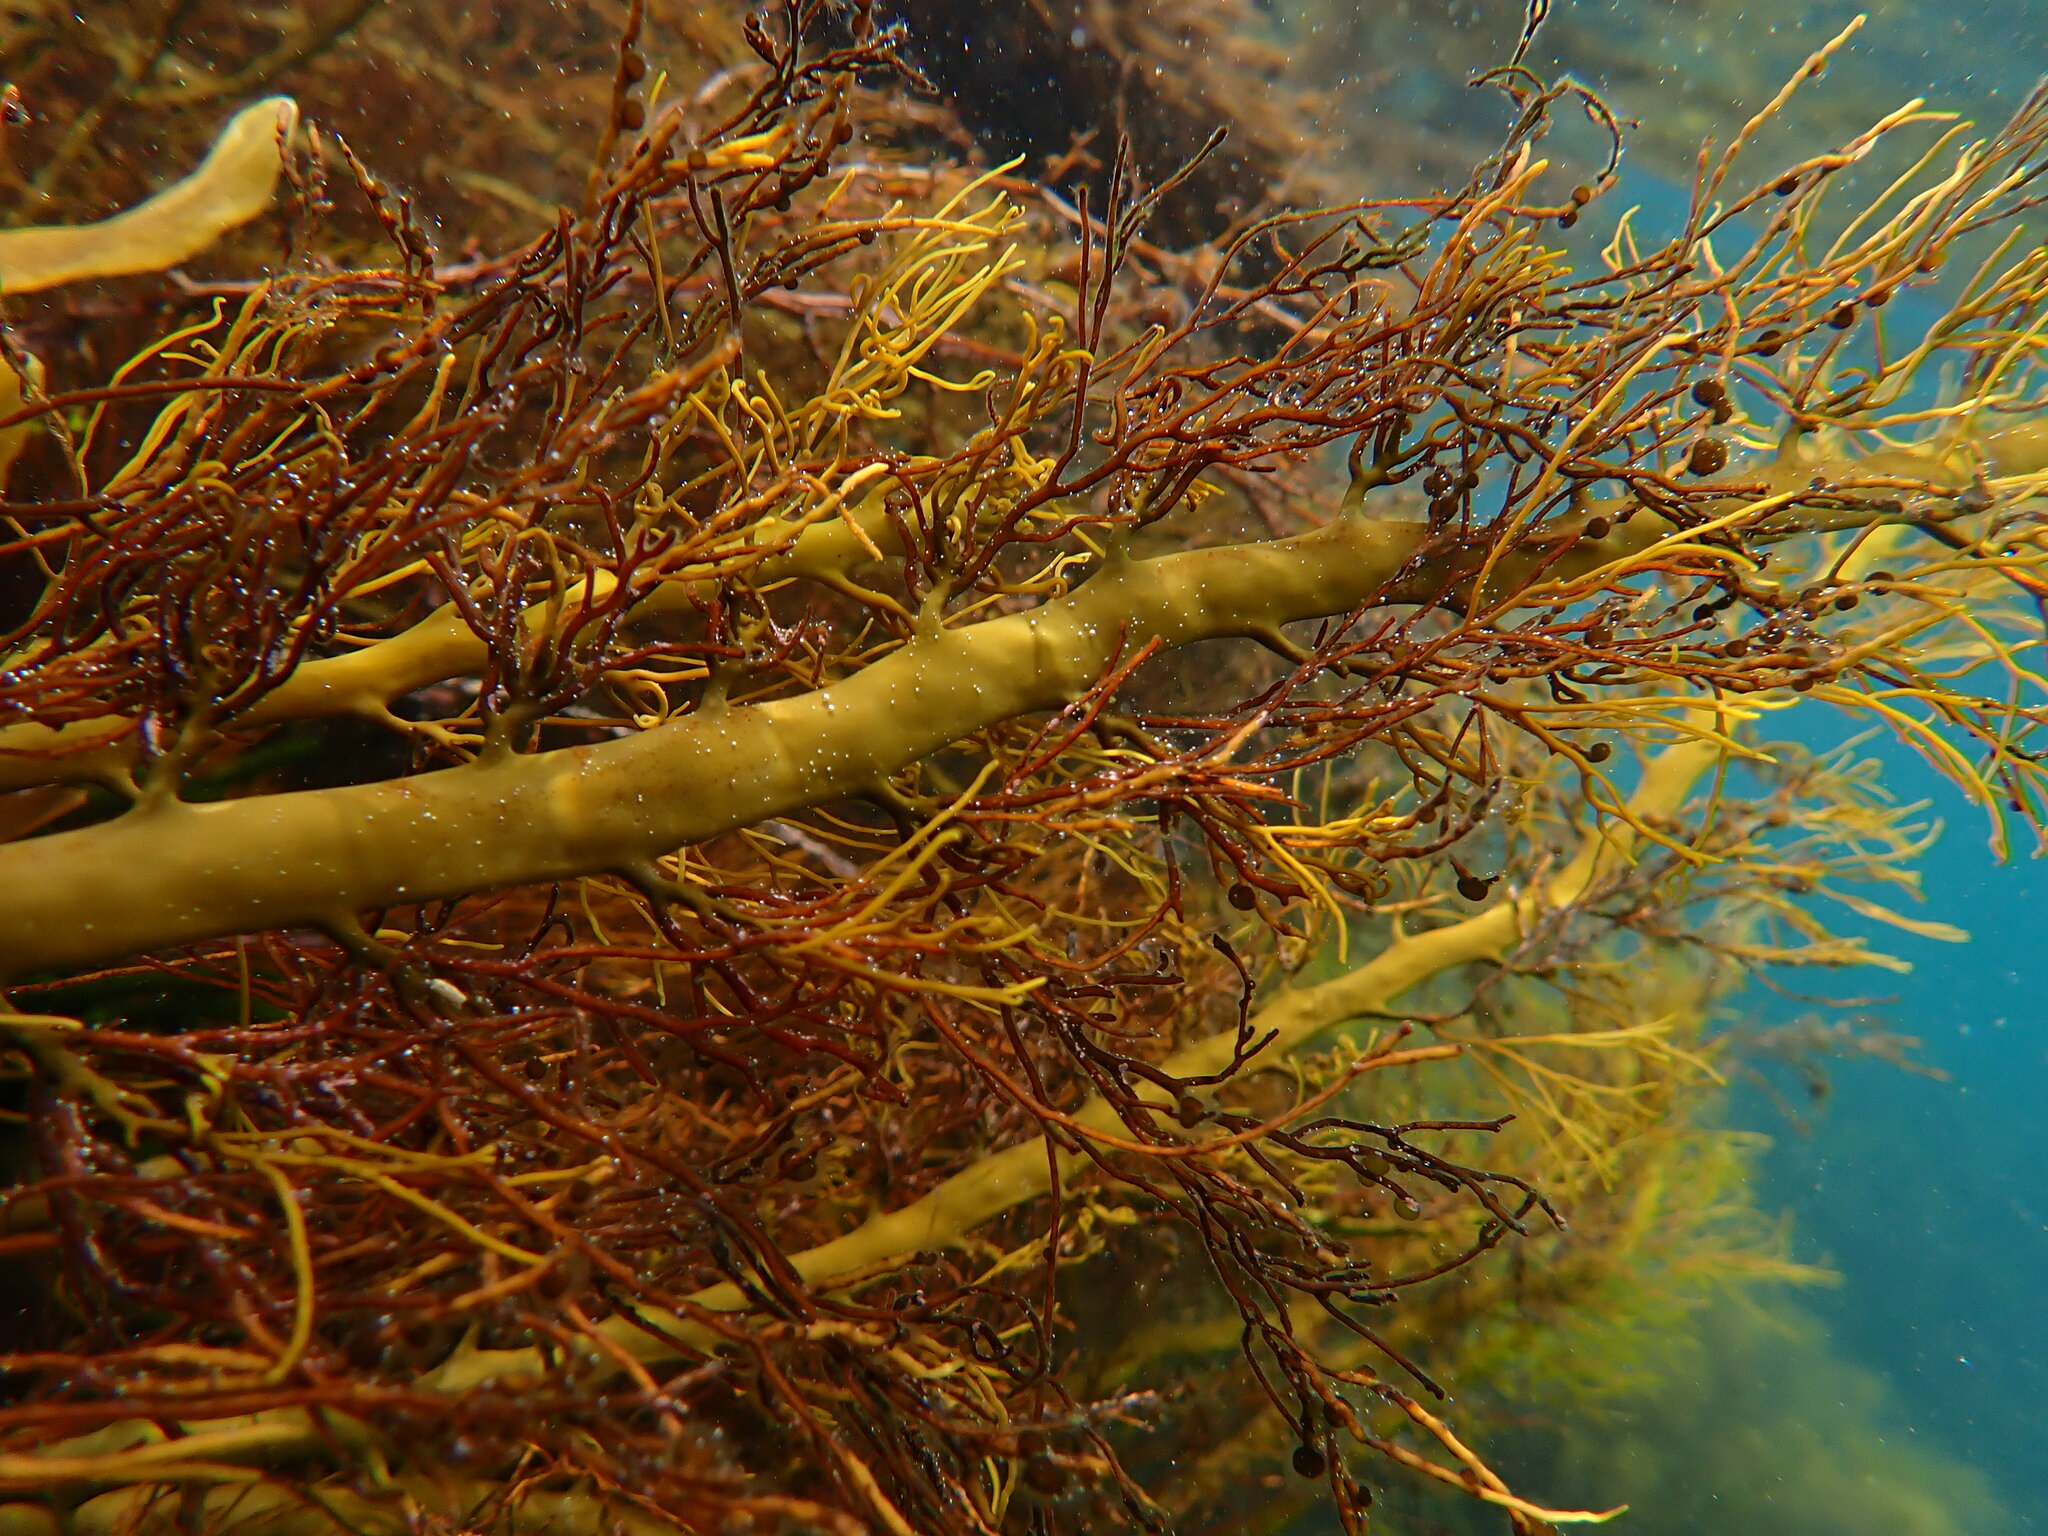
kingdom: Chromista
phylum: Ochrophyta
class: Phaeophyceae
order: Fucales
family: Sargassaceae
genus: Cystophora
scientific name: Cystophora
